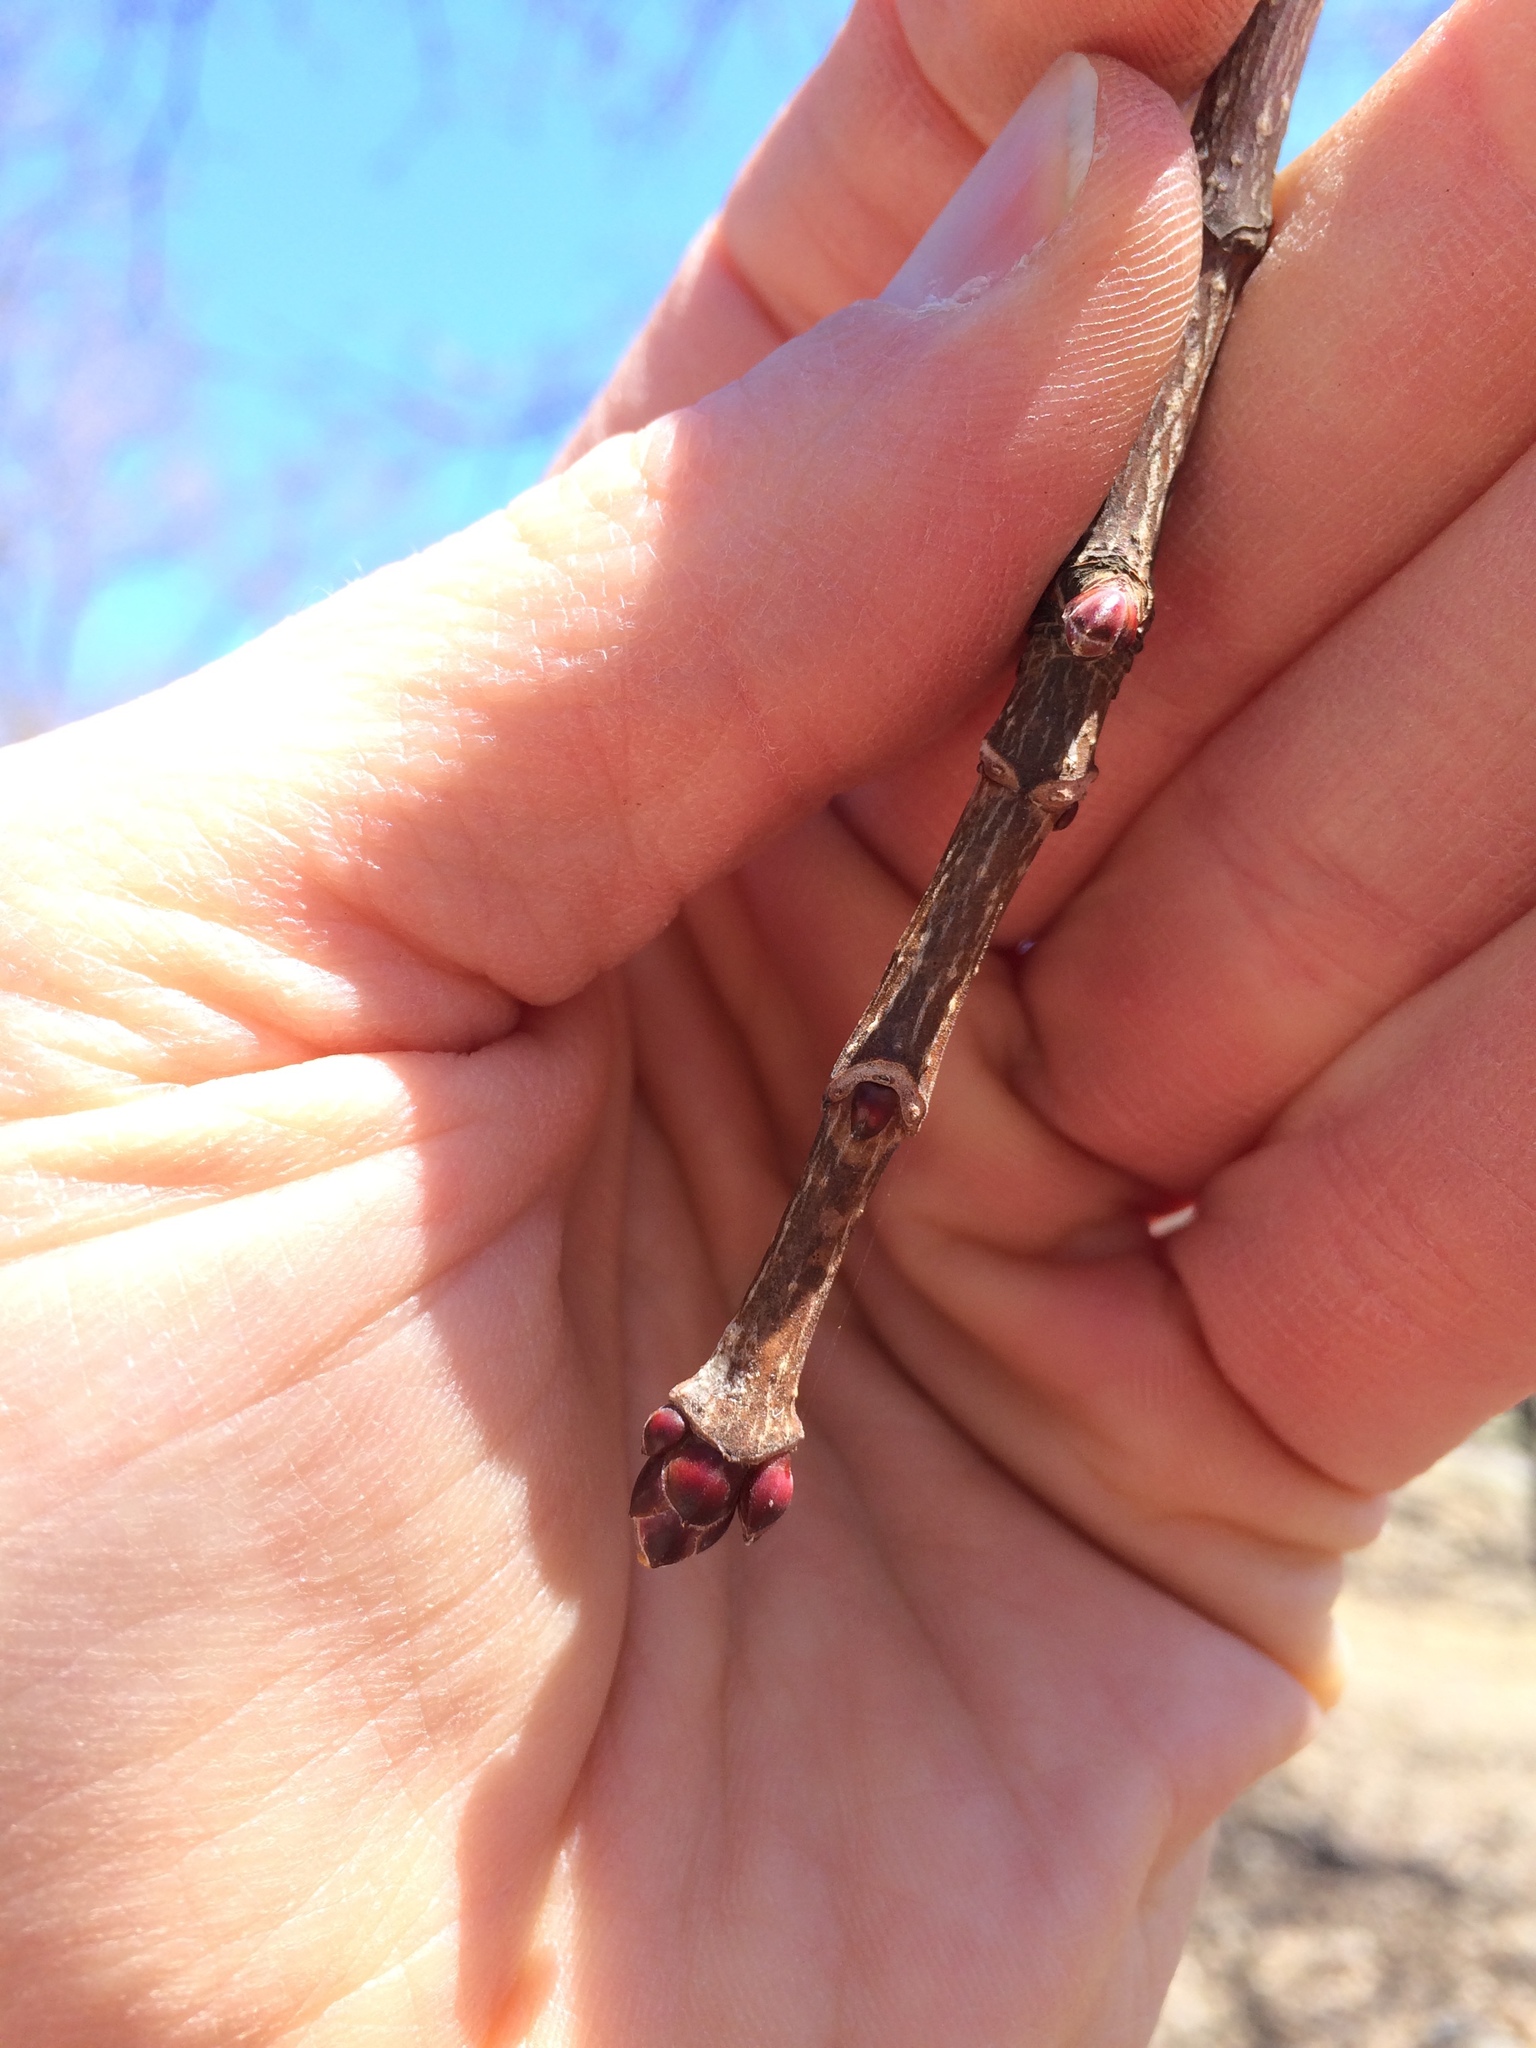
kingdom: Plantae
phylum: Tracheophyta
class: Magnoliopsida
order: Sapindales
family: Sapindaceae
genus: Acer
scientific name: Acer platanoides
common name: Norway maple
